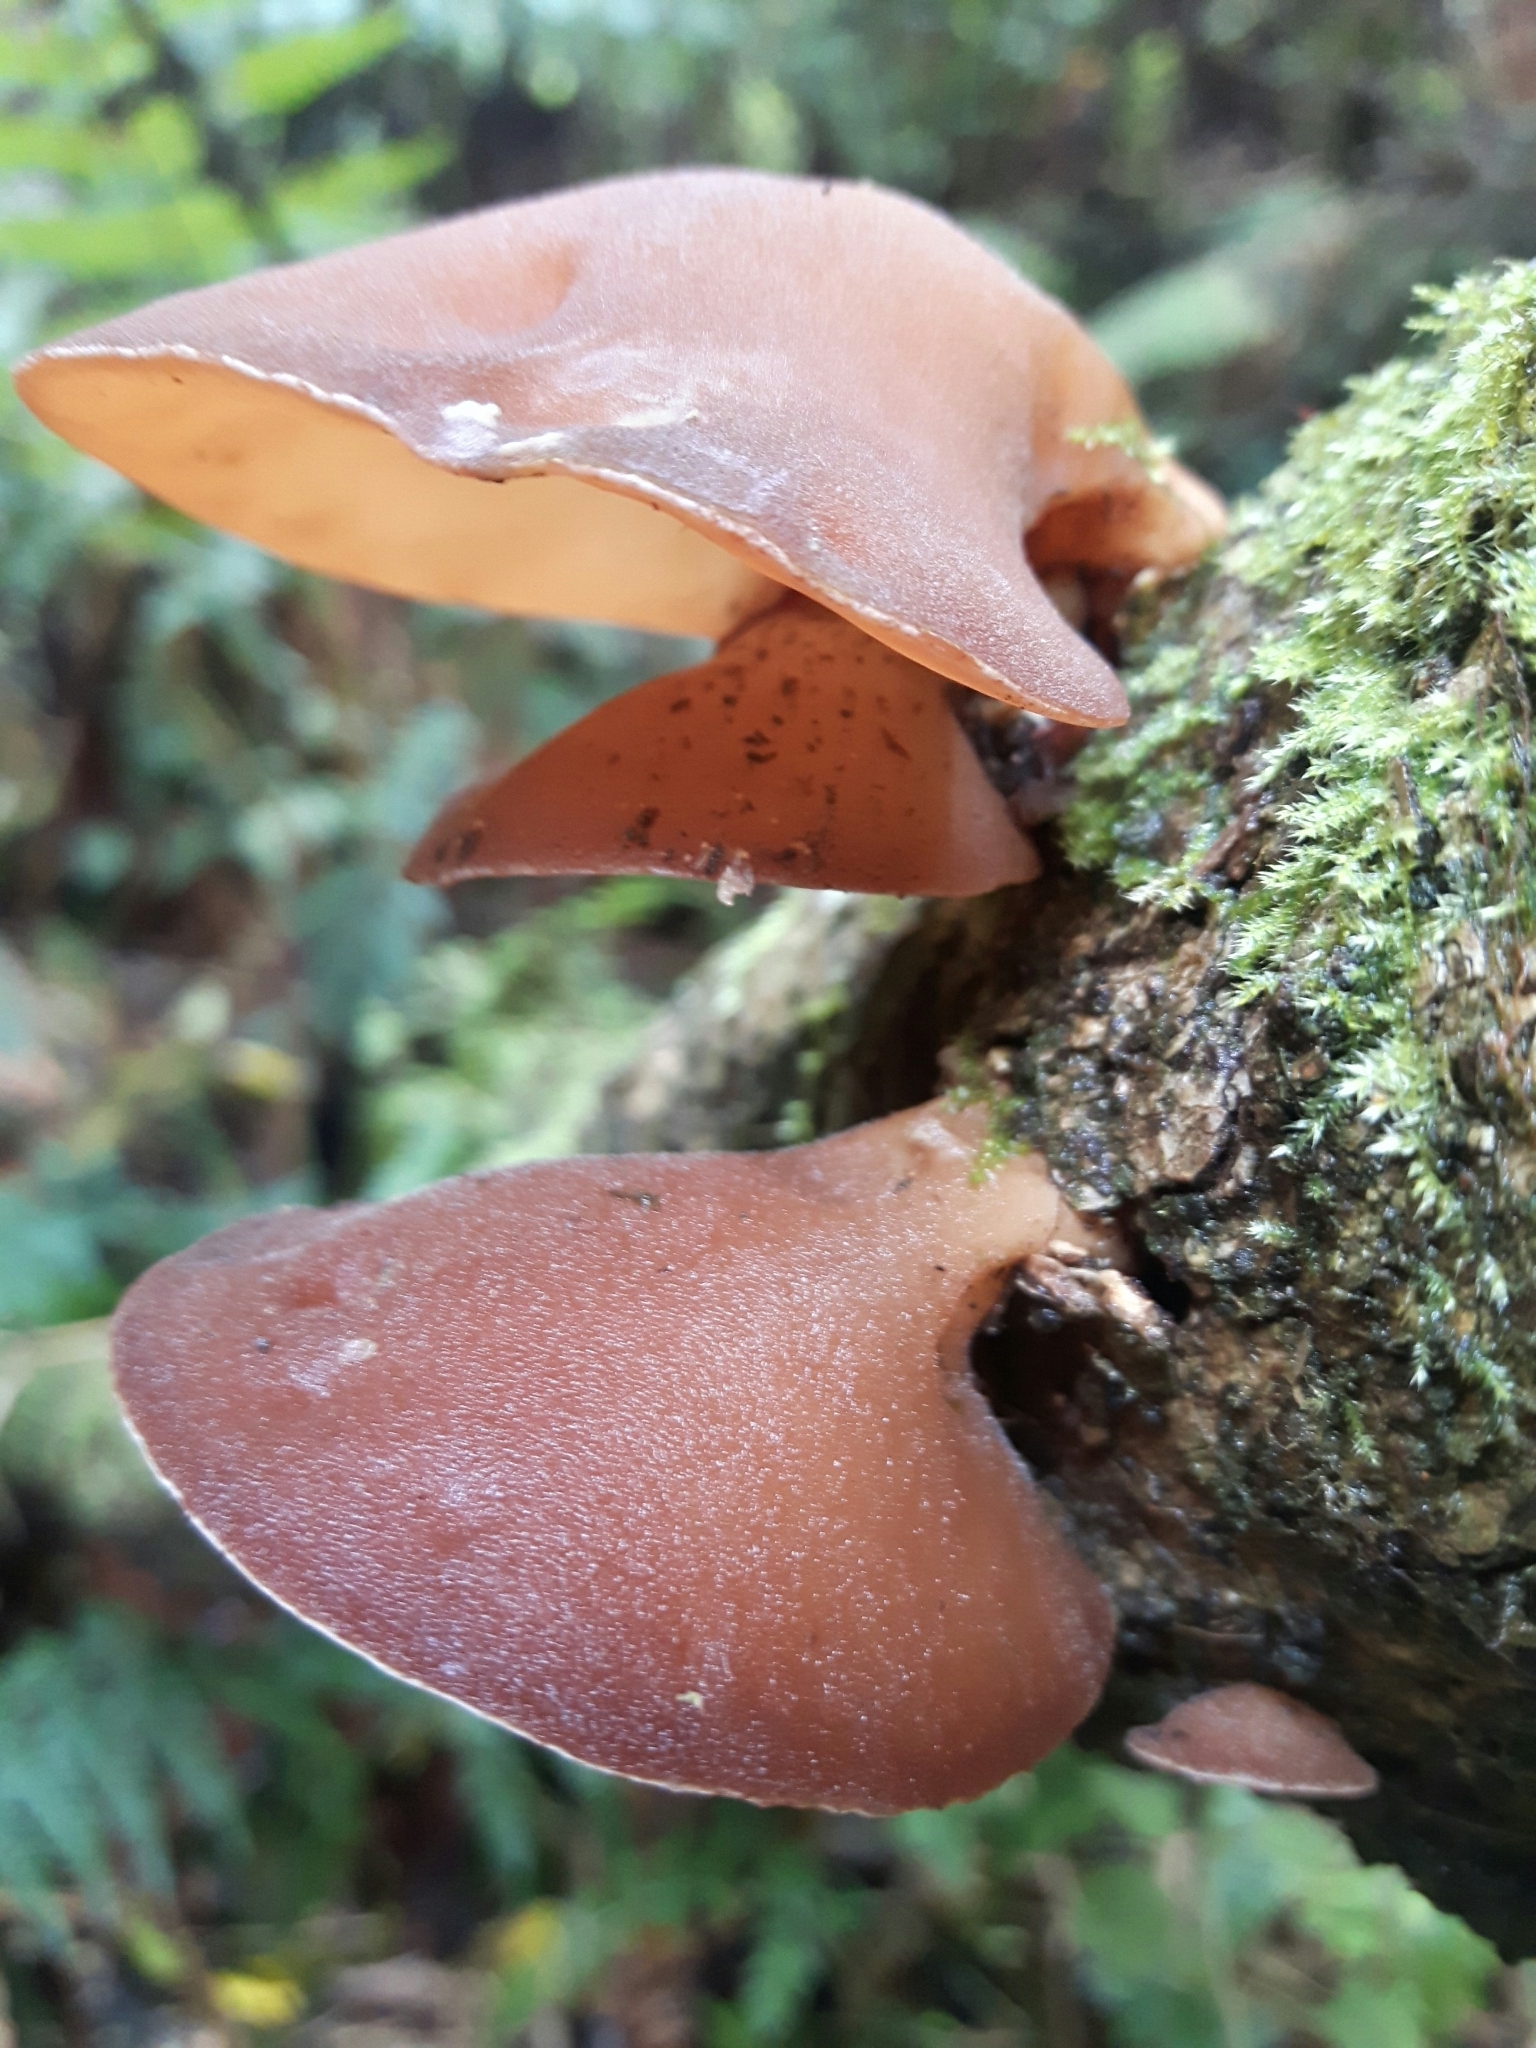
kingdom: Fungi
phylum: Basidiomycota
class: Agaricomycetes
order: Auriculariales
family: Auriculariaceae
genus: Auricularia
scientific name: Auricularia cornea
